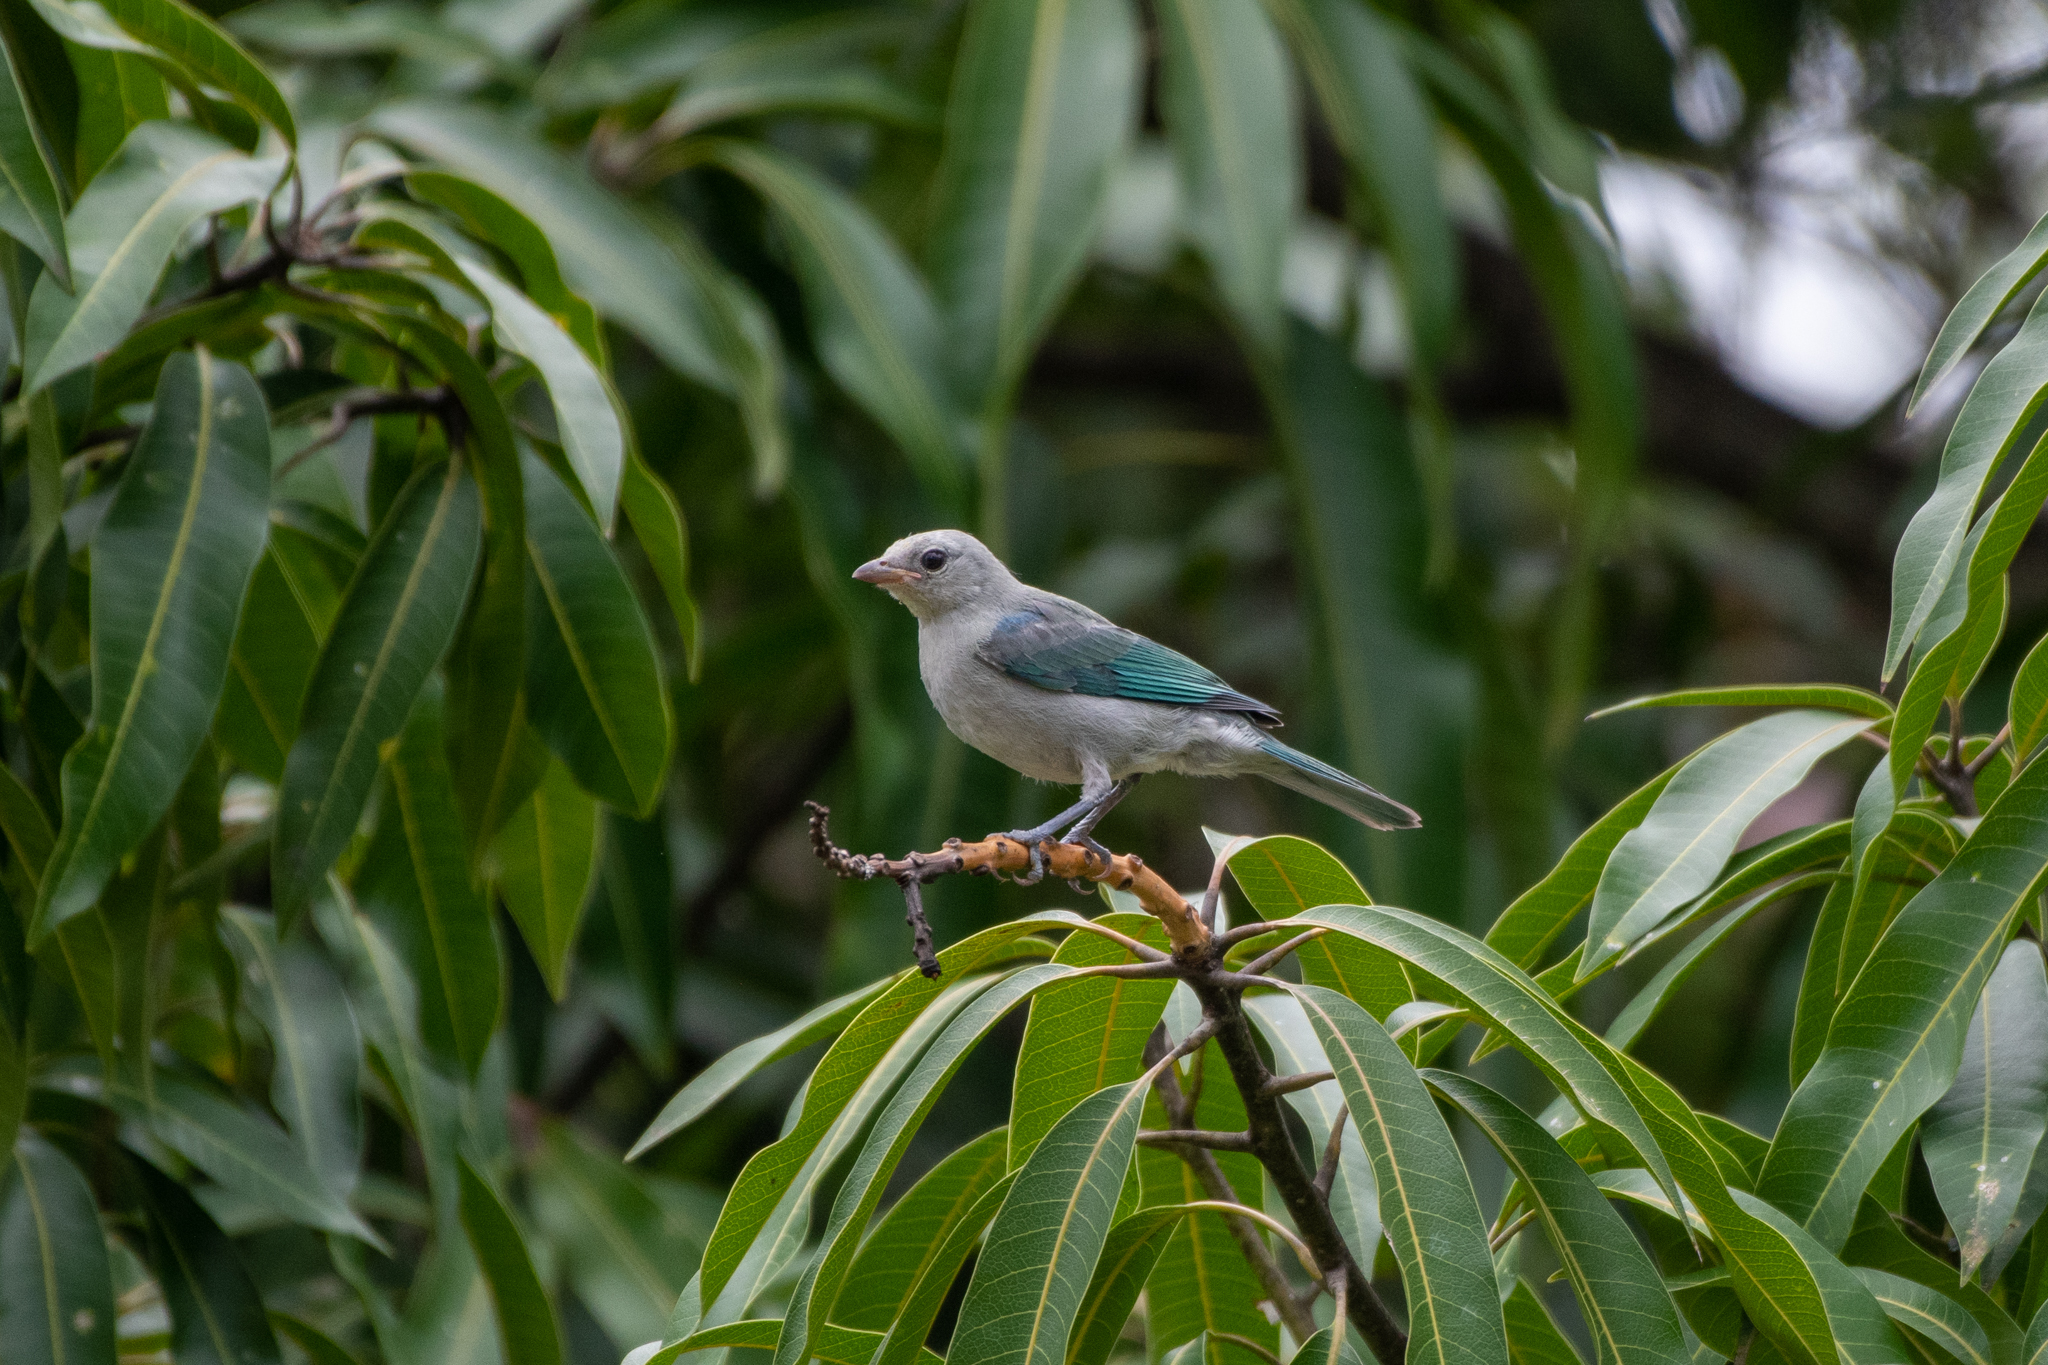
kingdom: Animalia
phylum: Chordata
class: Aves
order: Passeriformes
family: Thraupidae
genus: Thraupis
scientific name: Thraupis episcopus
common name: Blue-grey tanager
